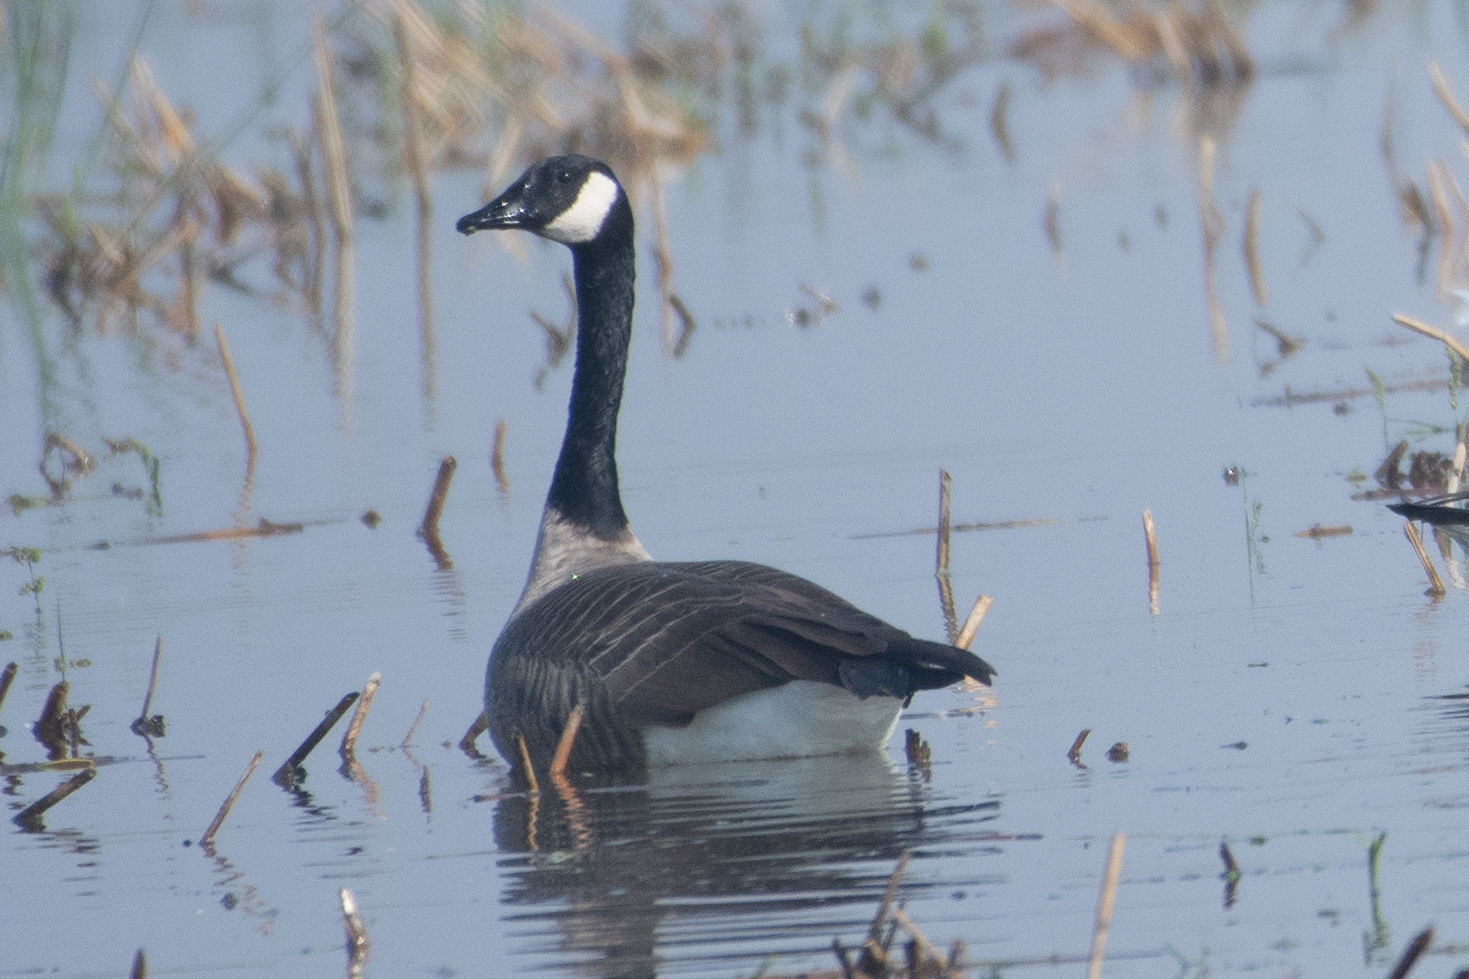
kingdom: Animalia
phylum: Chordata
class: Aves
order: Anseriformes
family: Anatidae
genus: Branta
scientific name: Branta canadensis
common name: Canada goose
